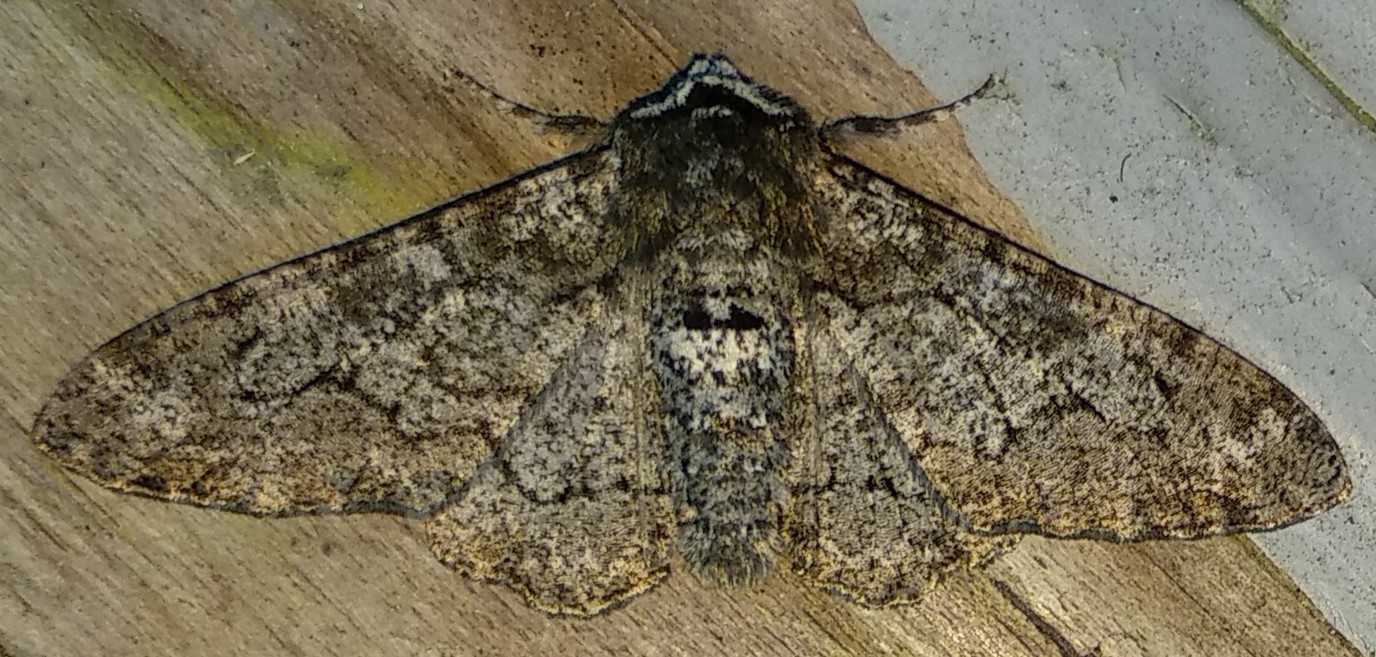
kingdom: Animalia
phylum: Arthropoda
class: Insecta
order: Lepidoptera
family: Geometridae
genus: Biston
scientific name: Biston betularia
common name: Peppered moth
